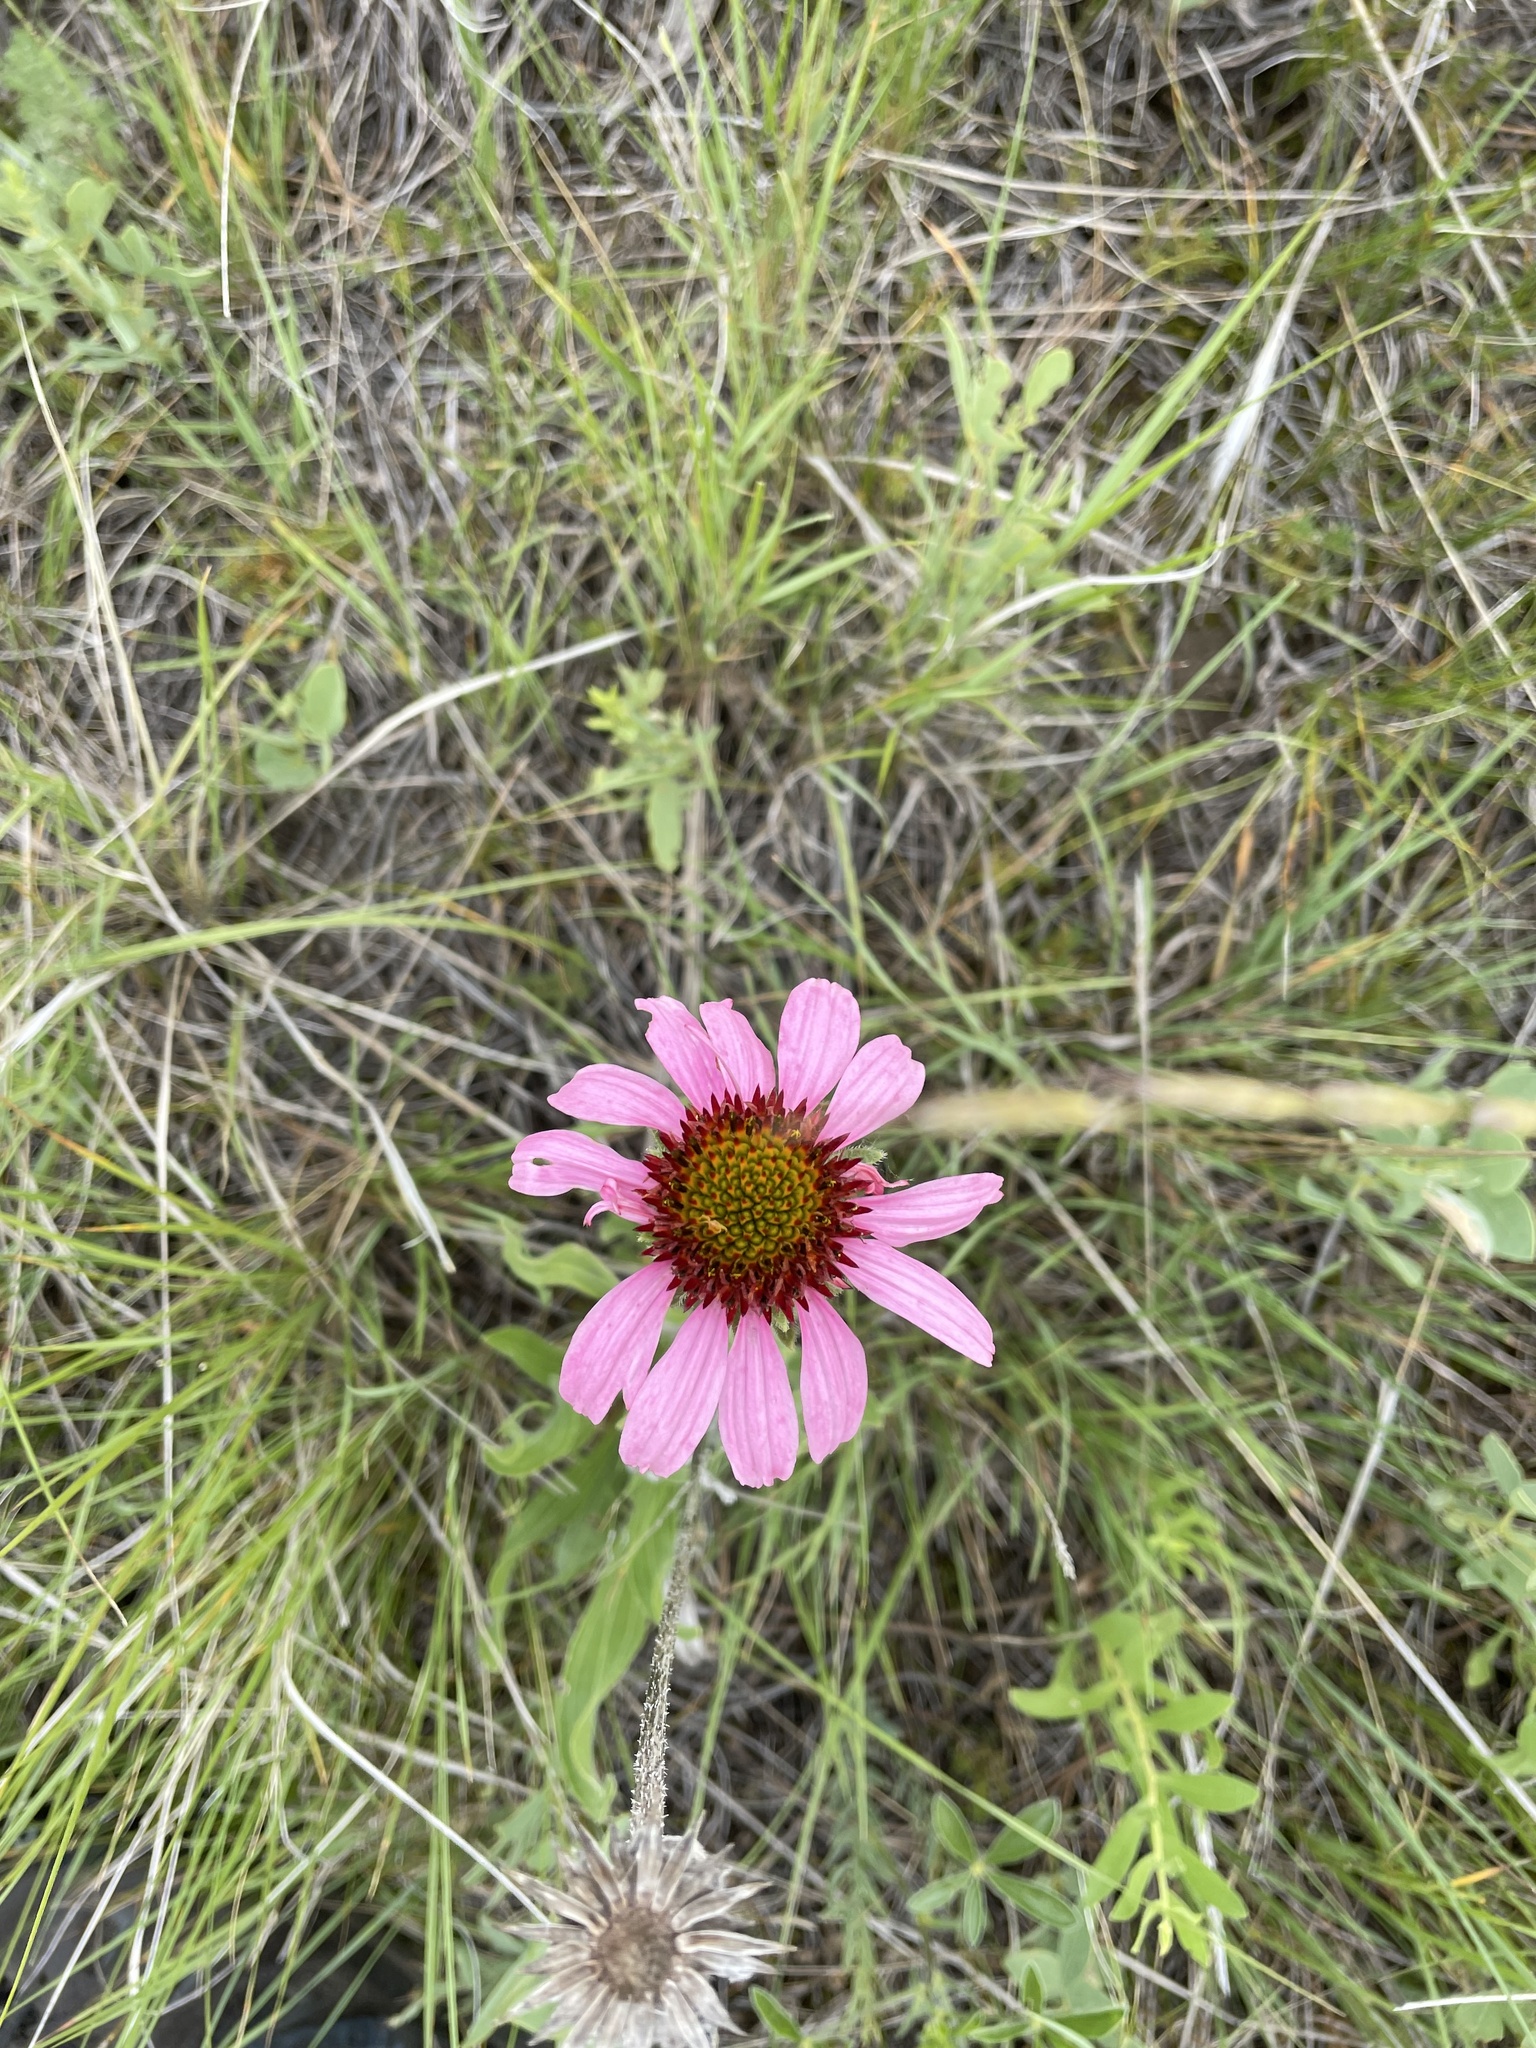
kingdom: Plantae
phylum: Tracheophyta
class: Magnoliopsida
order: Asterales
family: Asteraceae
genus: Echinacea
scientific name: Echinacea angustifolia
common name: Black-sampson echinacea
